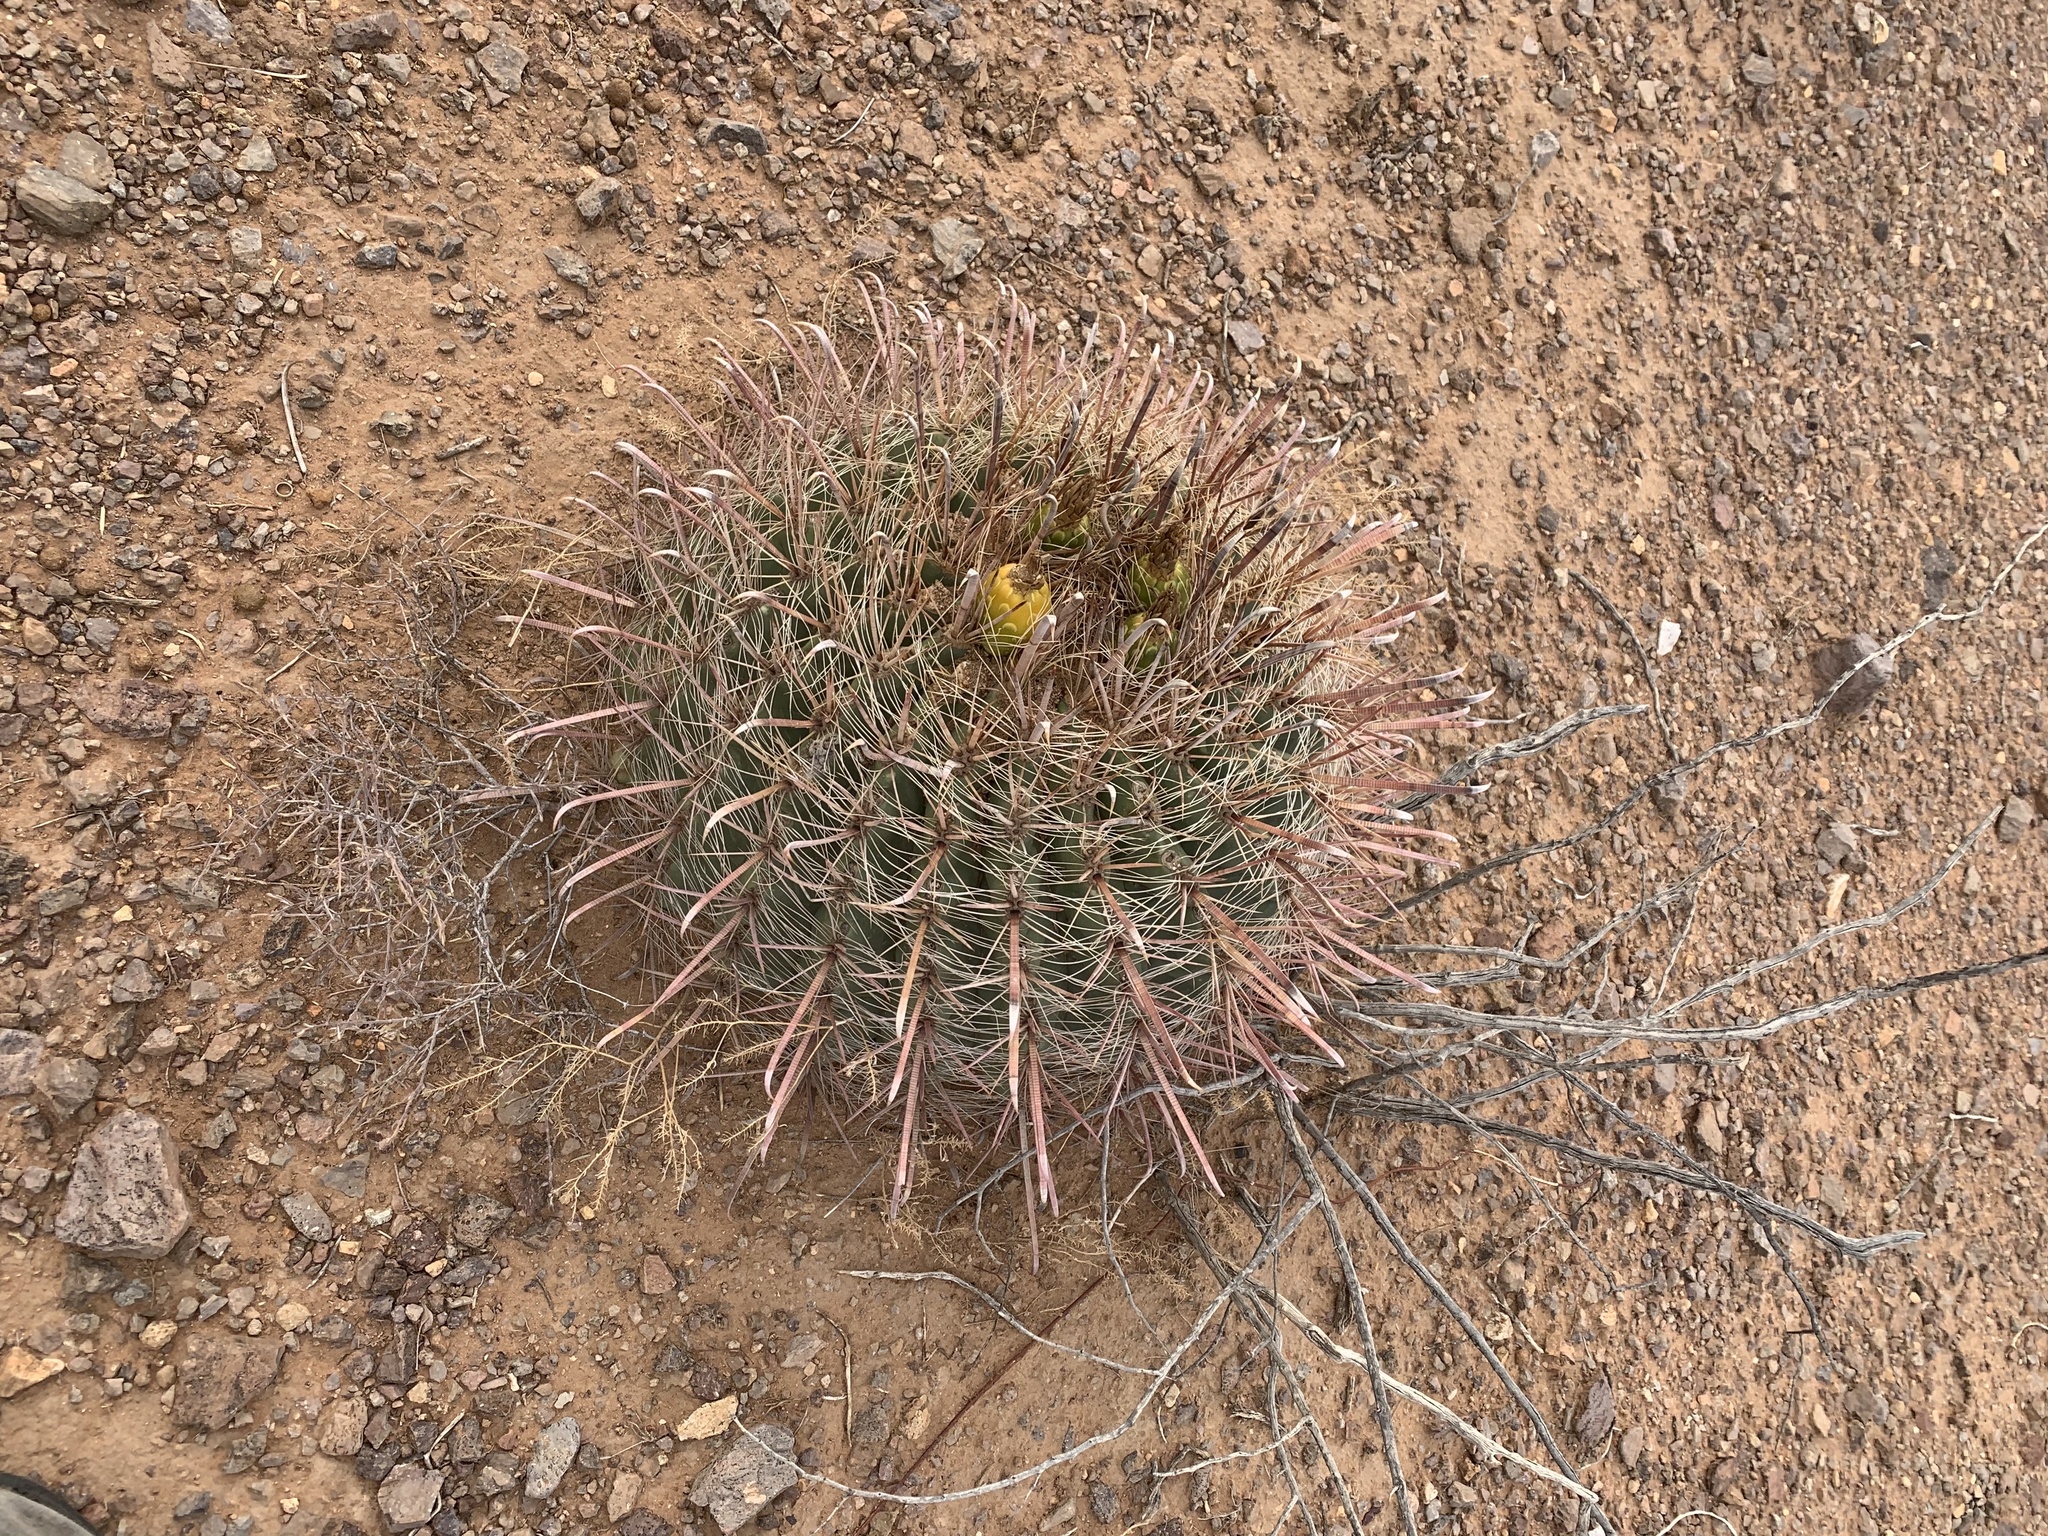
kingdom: Plantae
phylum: Tracheophyta
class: Magnoliopsida
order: Caryophyllales
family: Cactaceae
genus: Ferocactus
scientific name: Ferocactus wislizeni
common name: Candy barrel cactus
